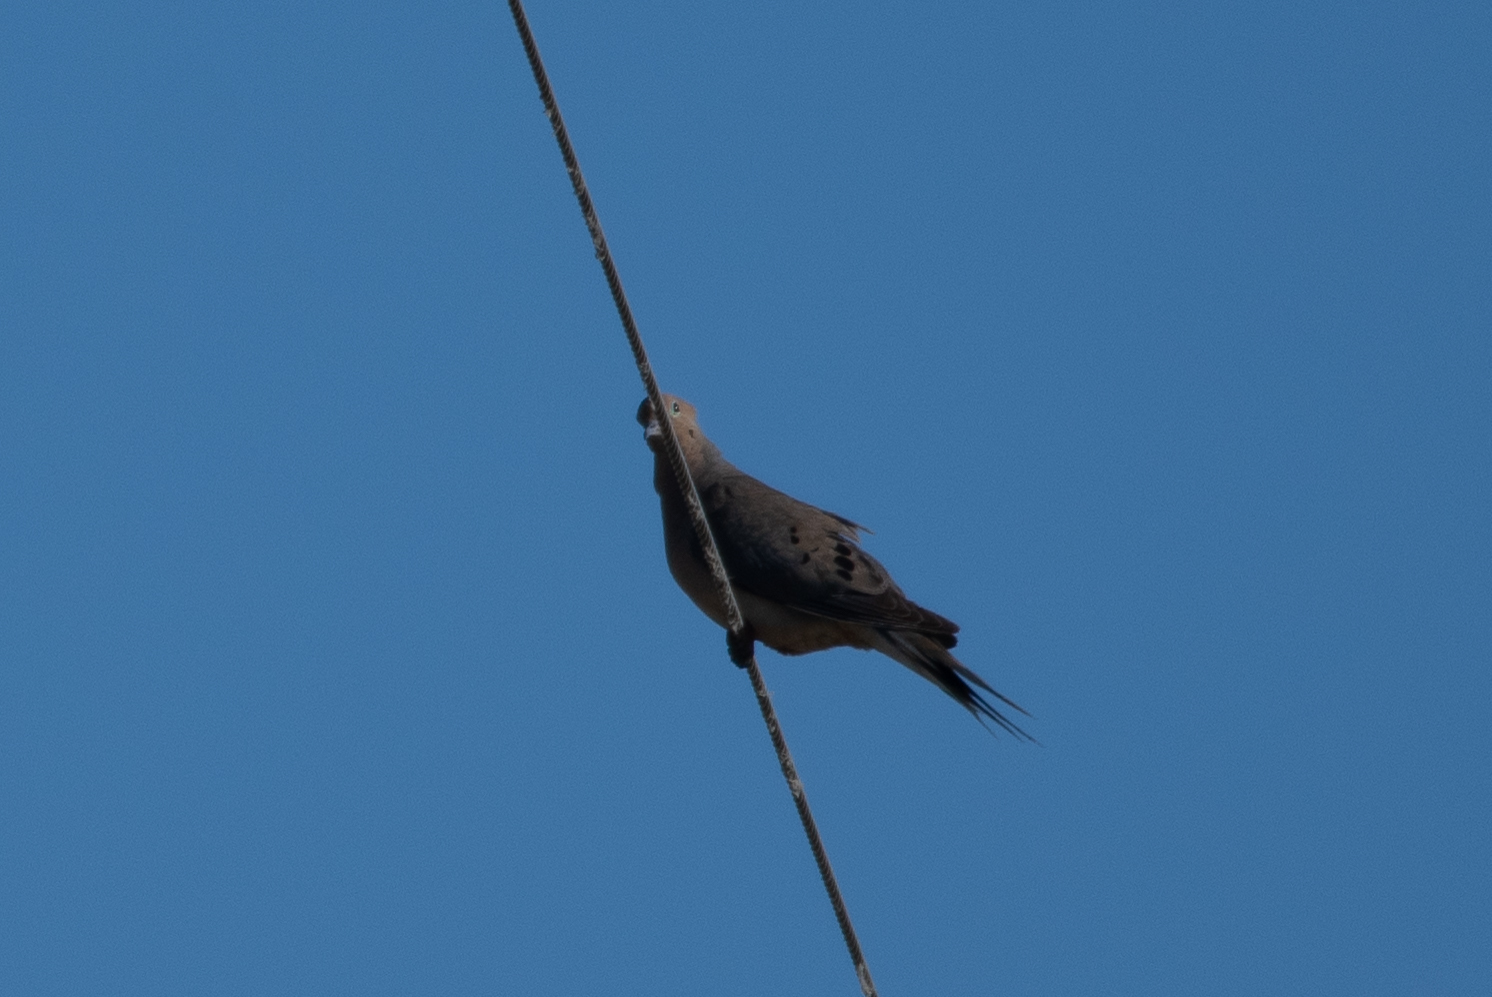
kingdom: Animalia
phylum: Chordata
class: Aves
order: Columbiformes
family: Columbidae
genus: Zenaida
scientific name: Zenaida macroura
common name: Mourning dove
